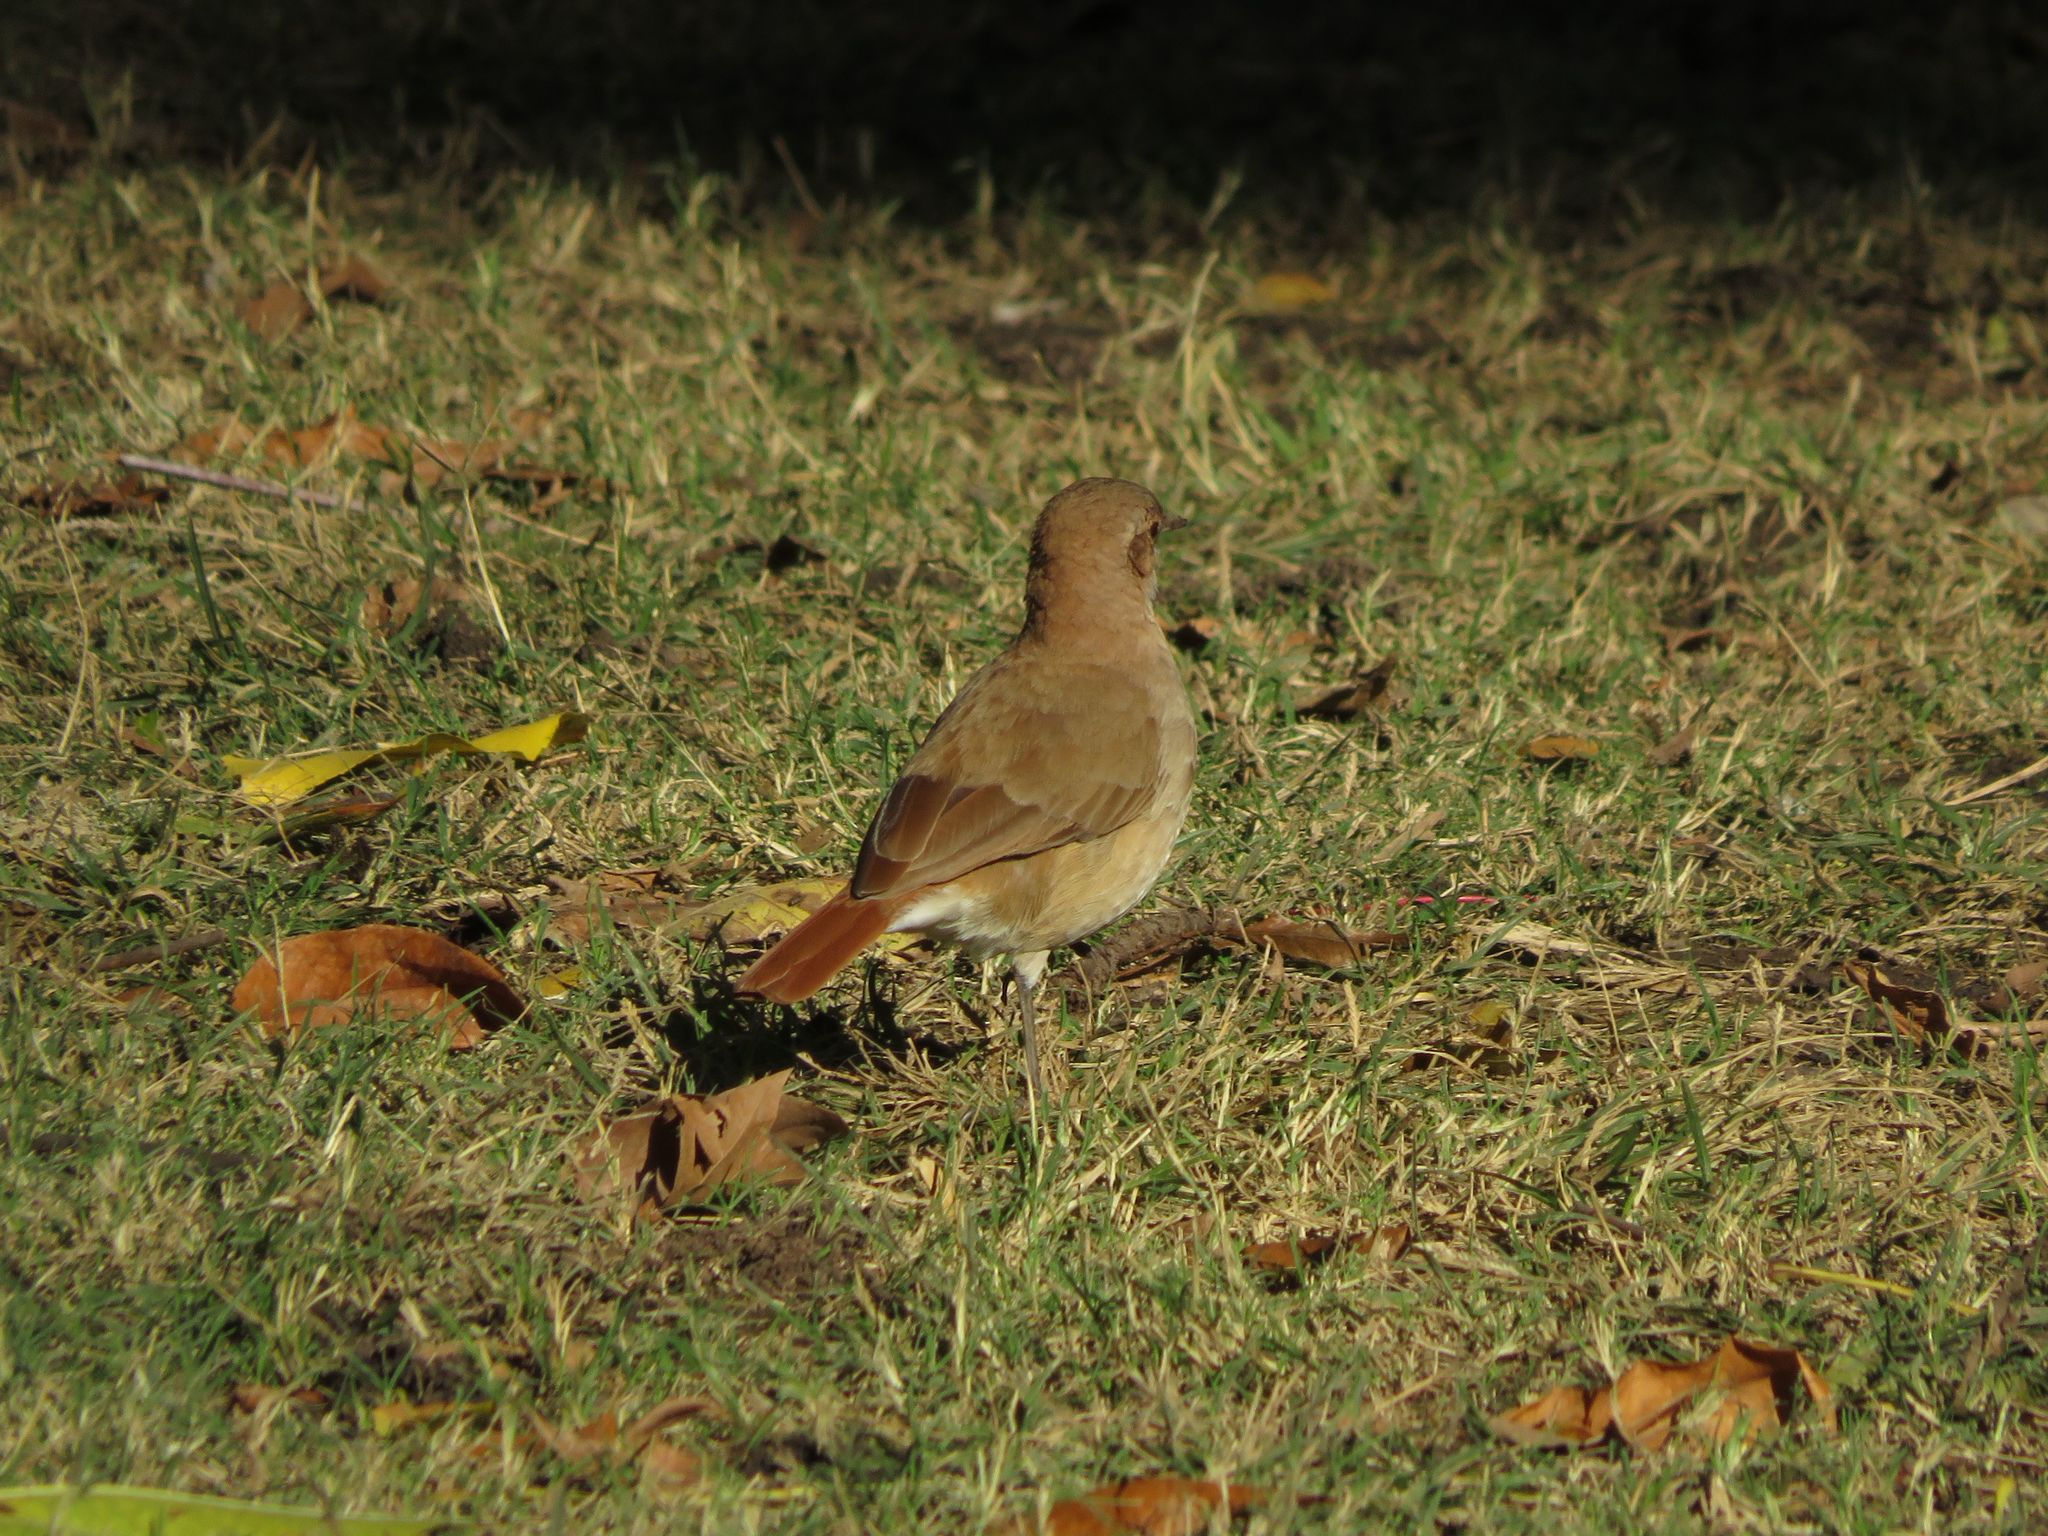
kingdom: Animalia
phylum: Chordata
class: Aves
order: Passeriformes
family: Furnariidae
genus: Furnarius
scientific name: Furnarius rufus
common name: Rufous hornero
